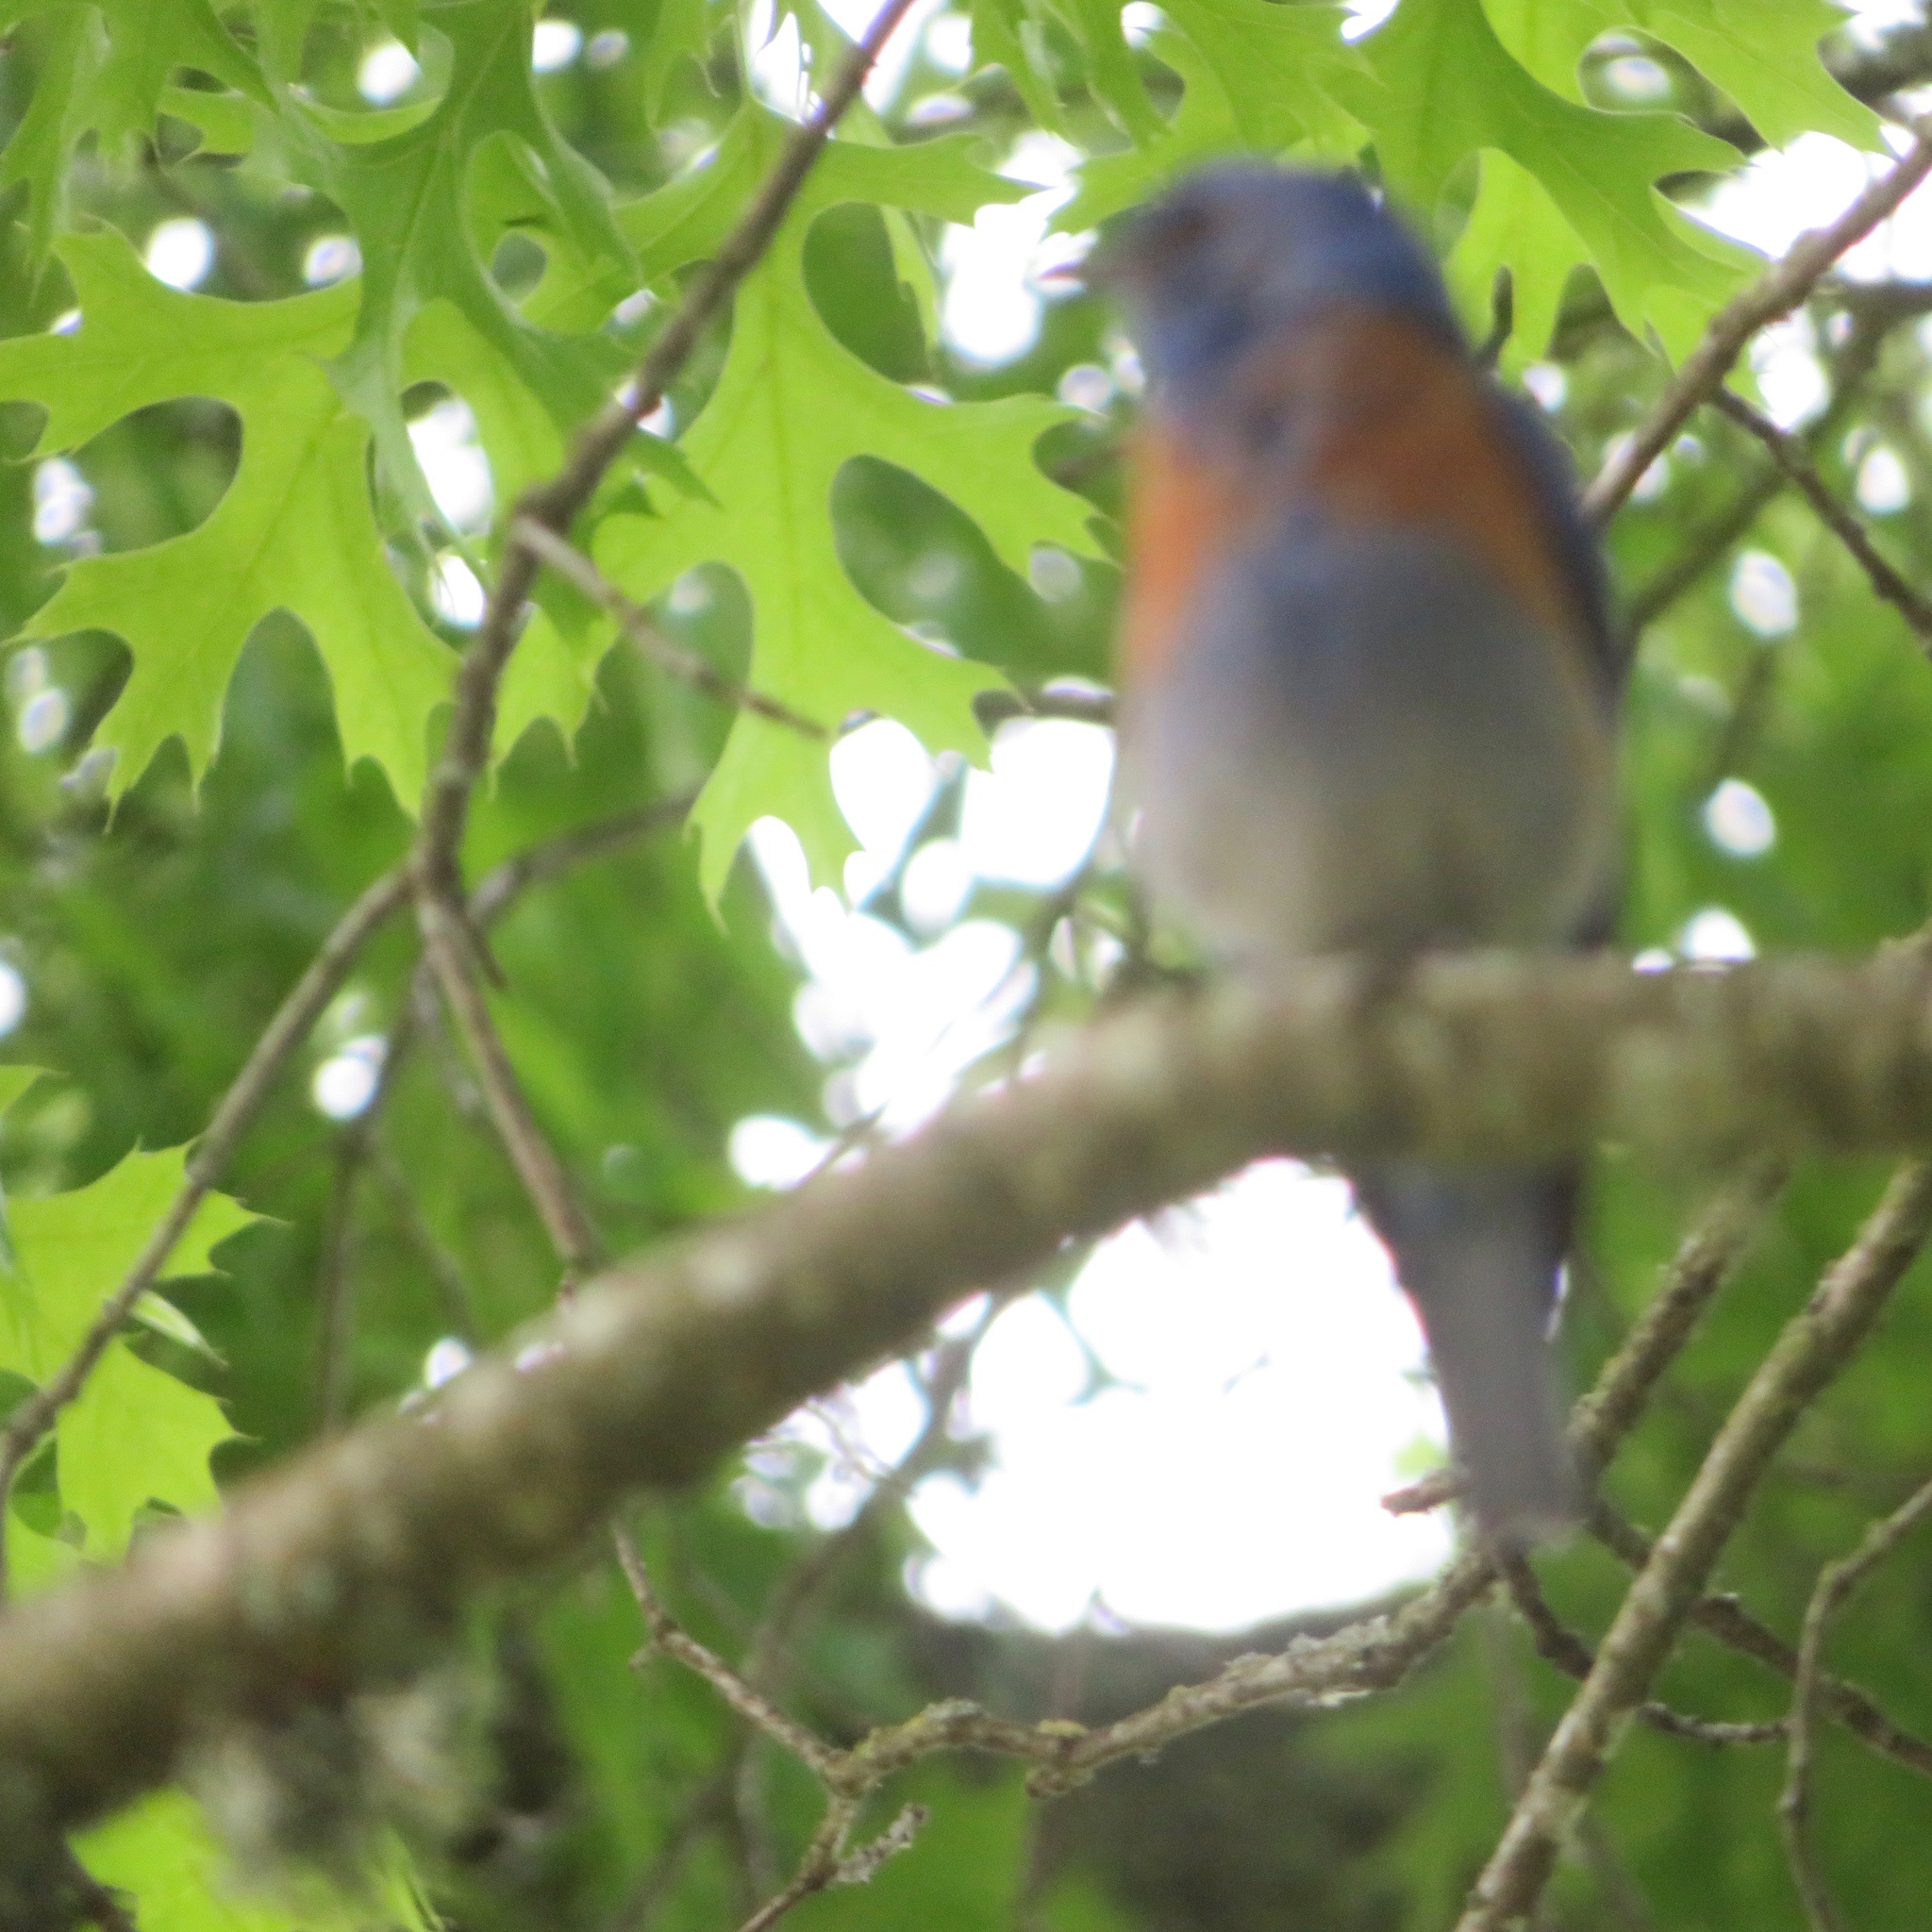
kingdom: Animalia
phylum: Chordata
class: Aves
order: Passeriformes
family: Turdidae
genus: Sialia
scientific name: Sialia mexicana
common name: Western bluebird
